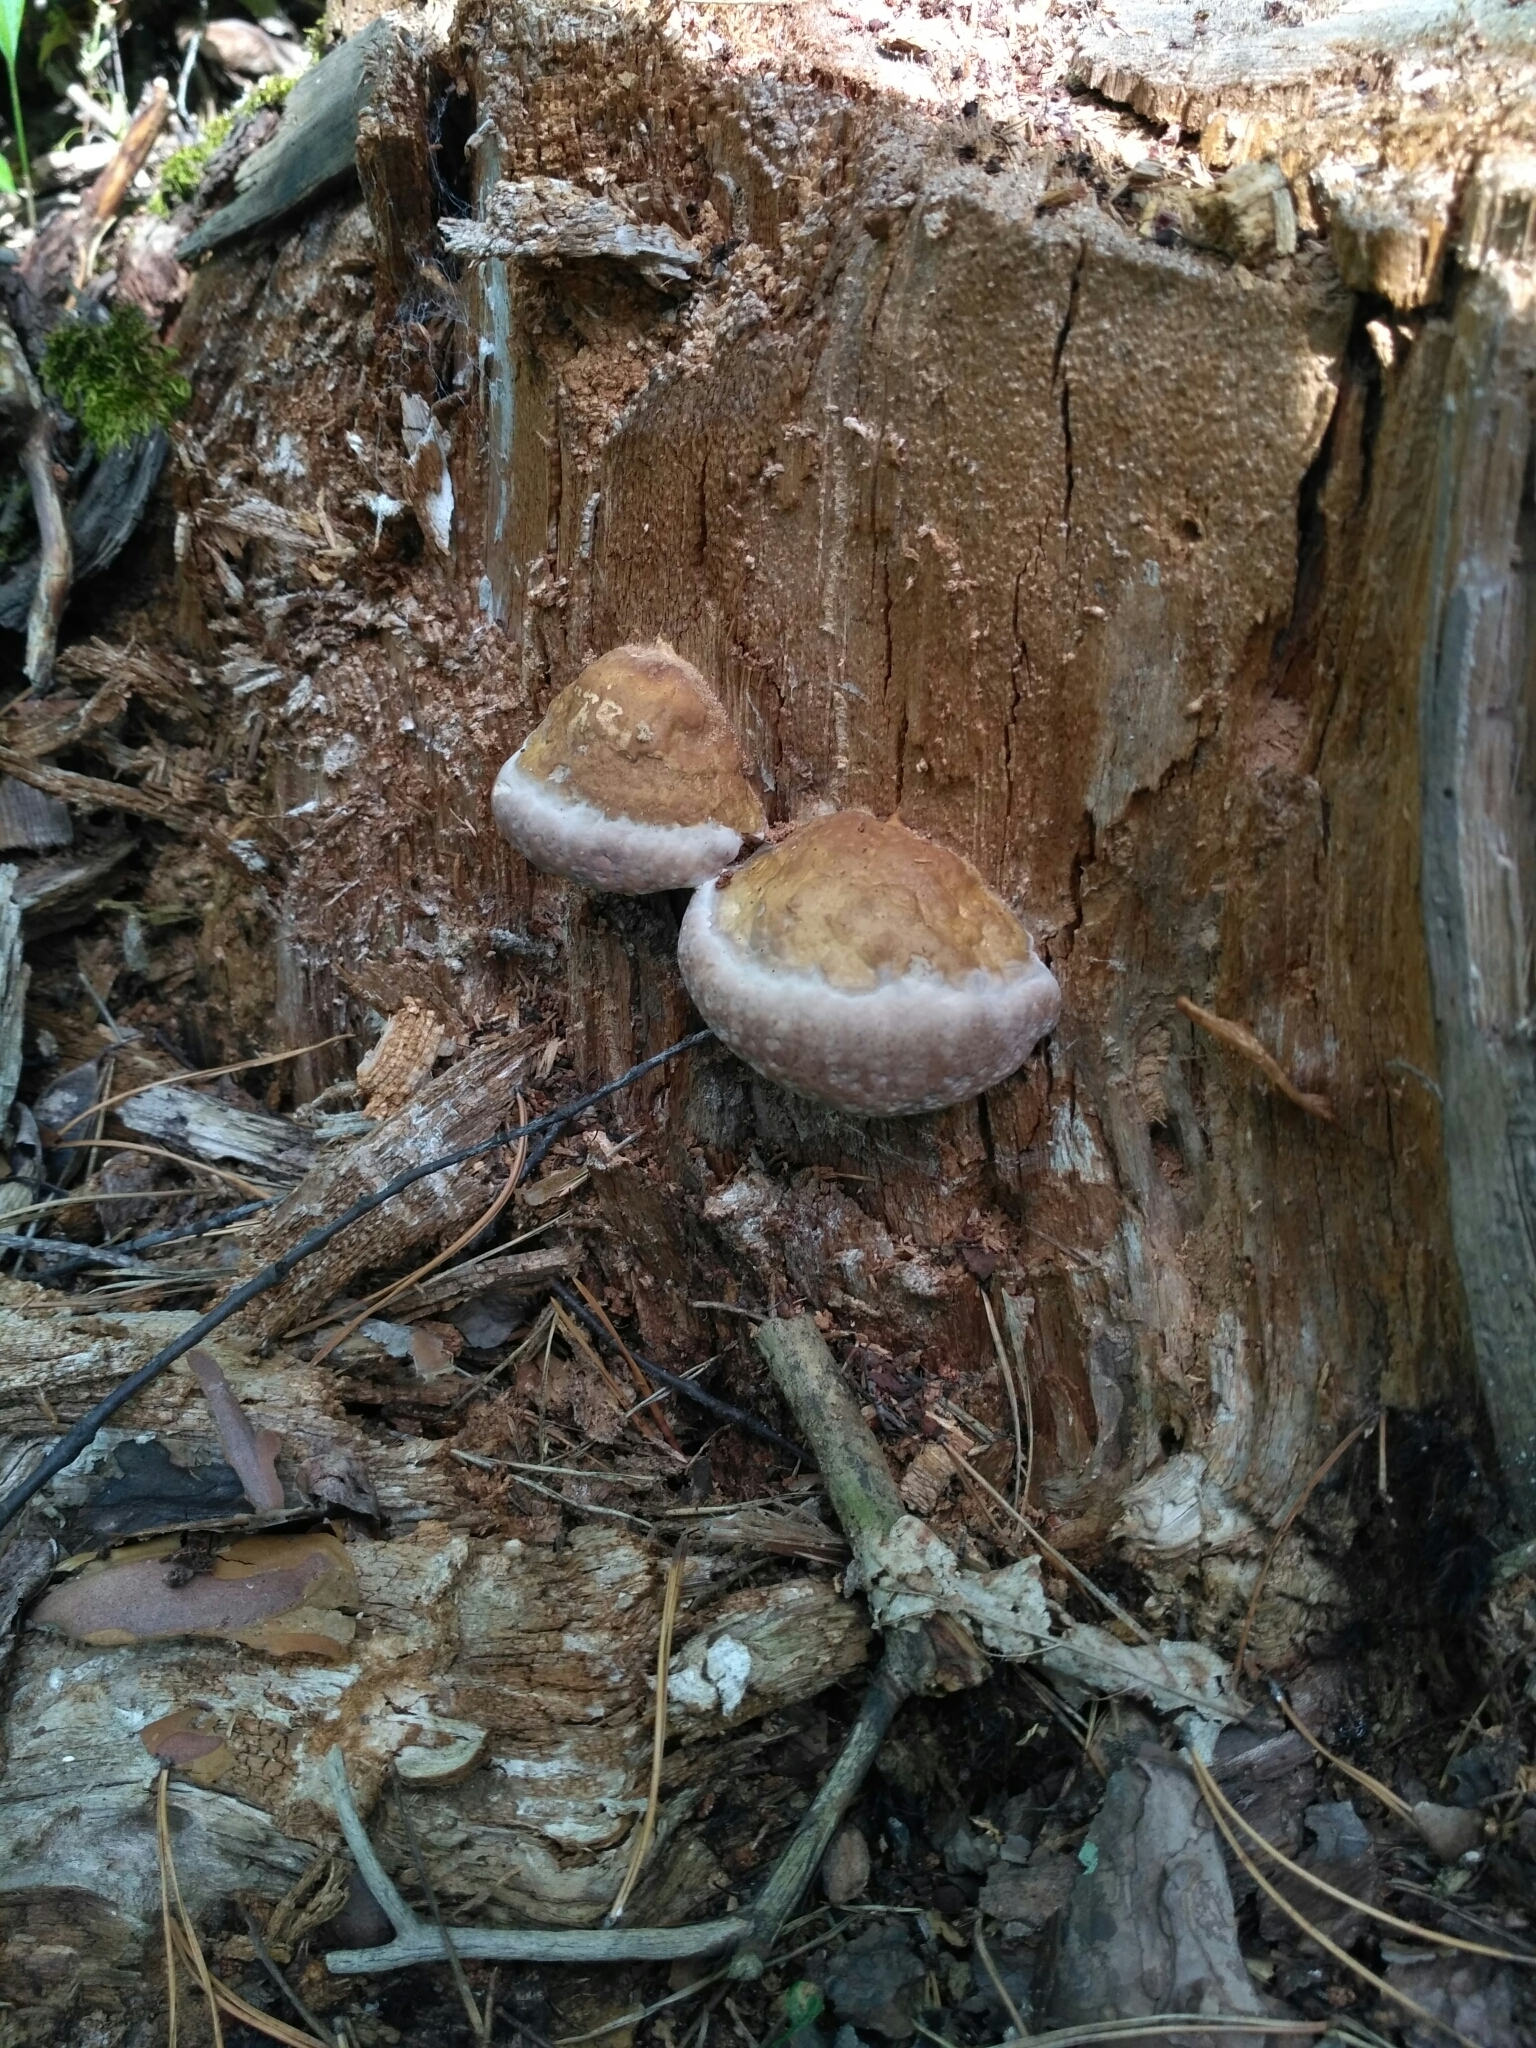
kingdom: Fungi
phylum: Basidiomycota
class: Agaricomycetes
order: Polyporales
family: Fomitopsidaceae
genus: Fomitopsis
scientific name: Fomitopsis pinicola
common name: Red-belted bracket
